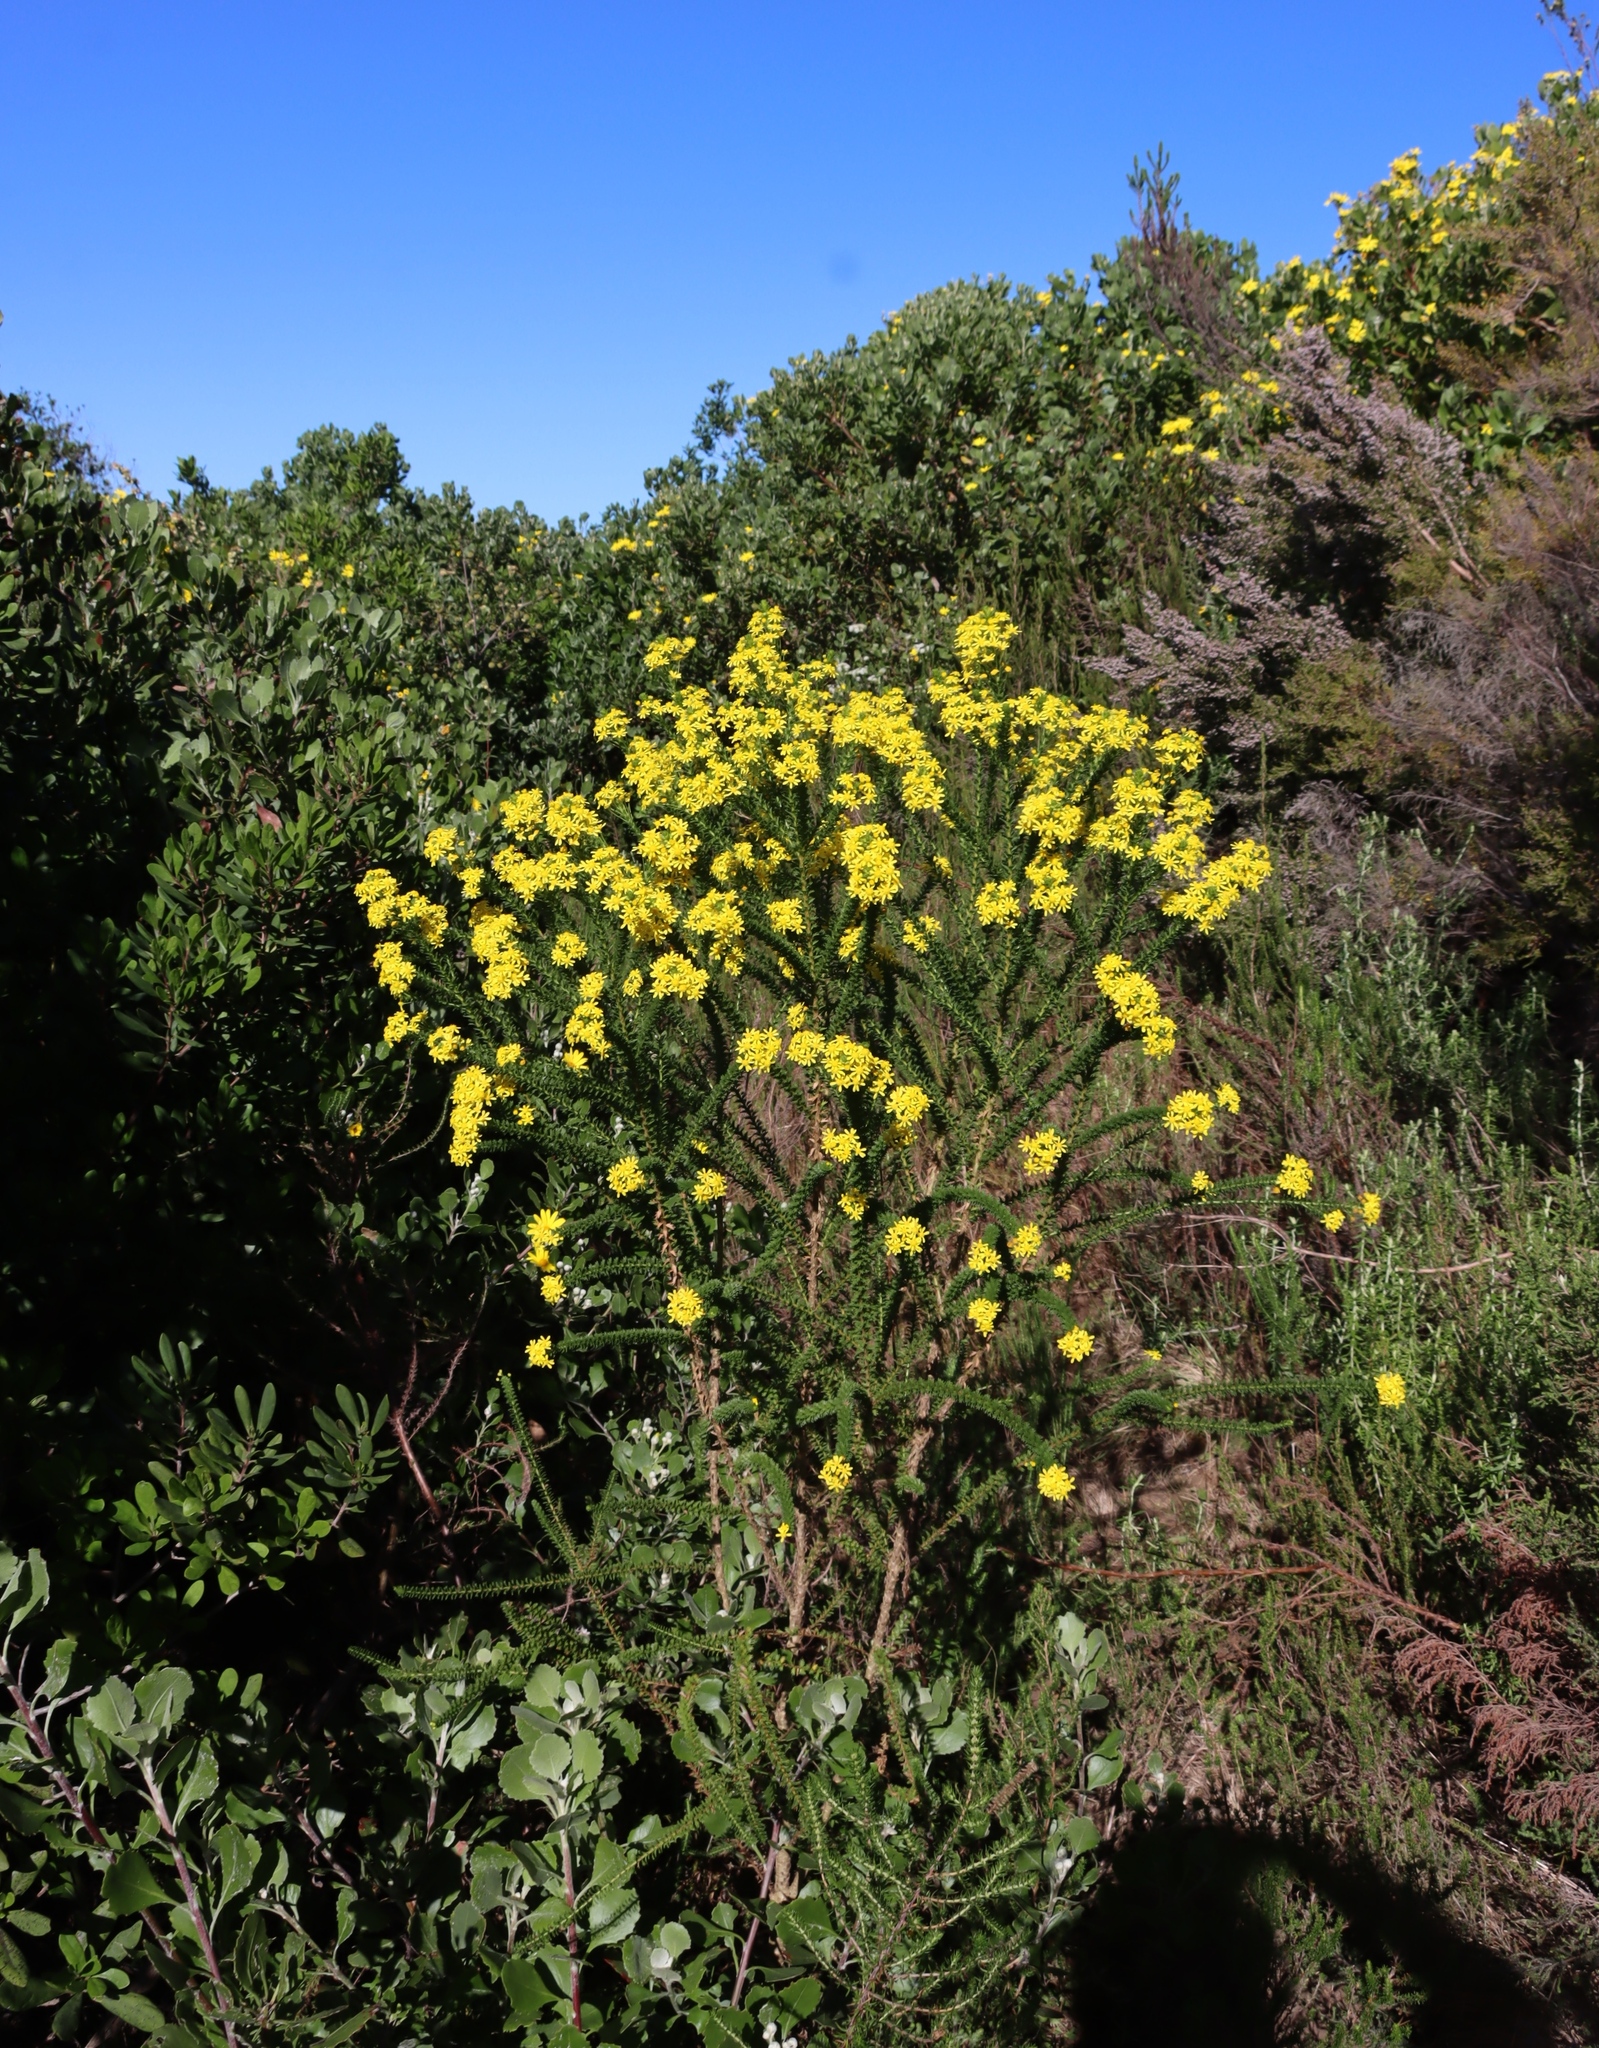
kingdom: Plantae
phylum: Tracheophyta
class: Magnoliopsida
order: Asterales
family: Asteraceae
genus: Euryops
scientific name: Euryops virgineus
